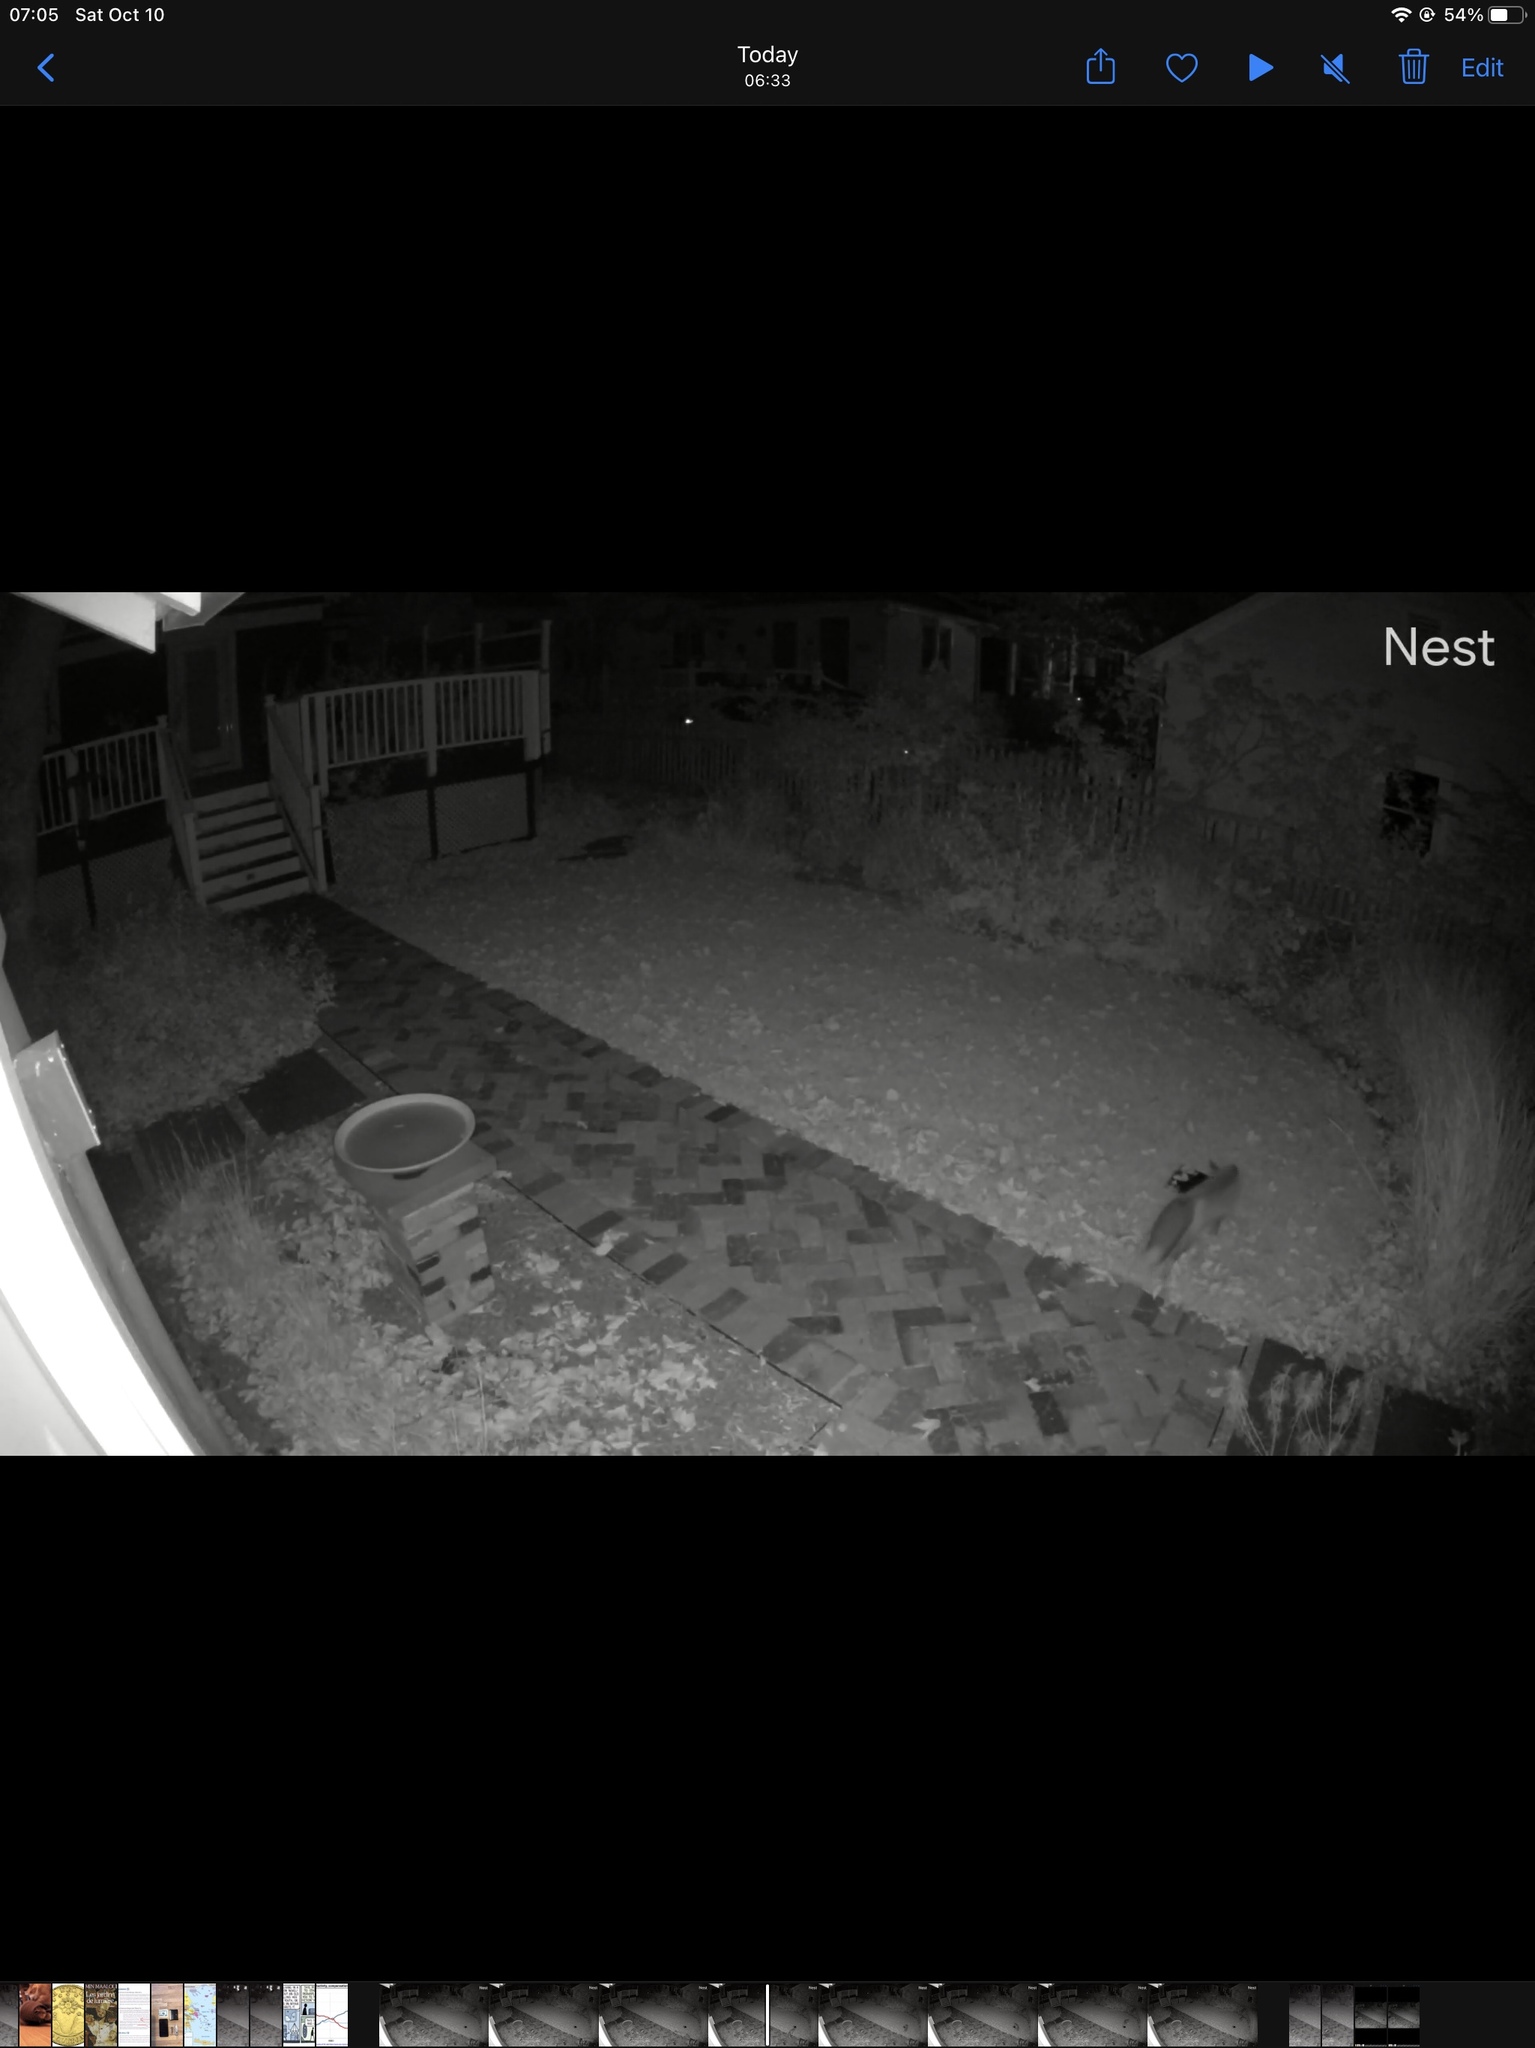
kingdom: Animalia
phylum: Chordata
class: Mammalia
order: Carnivora
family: Canidae
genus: Vulpes
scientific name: Vulpes vulpes
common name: Red fox
